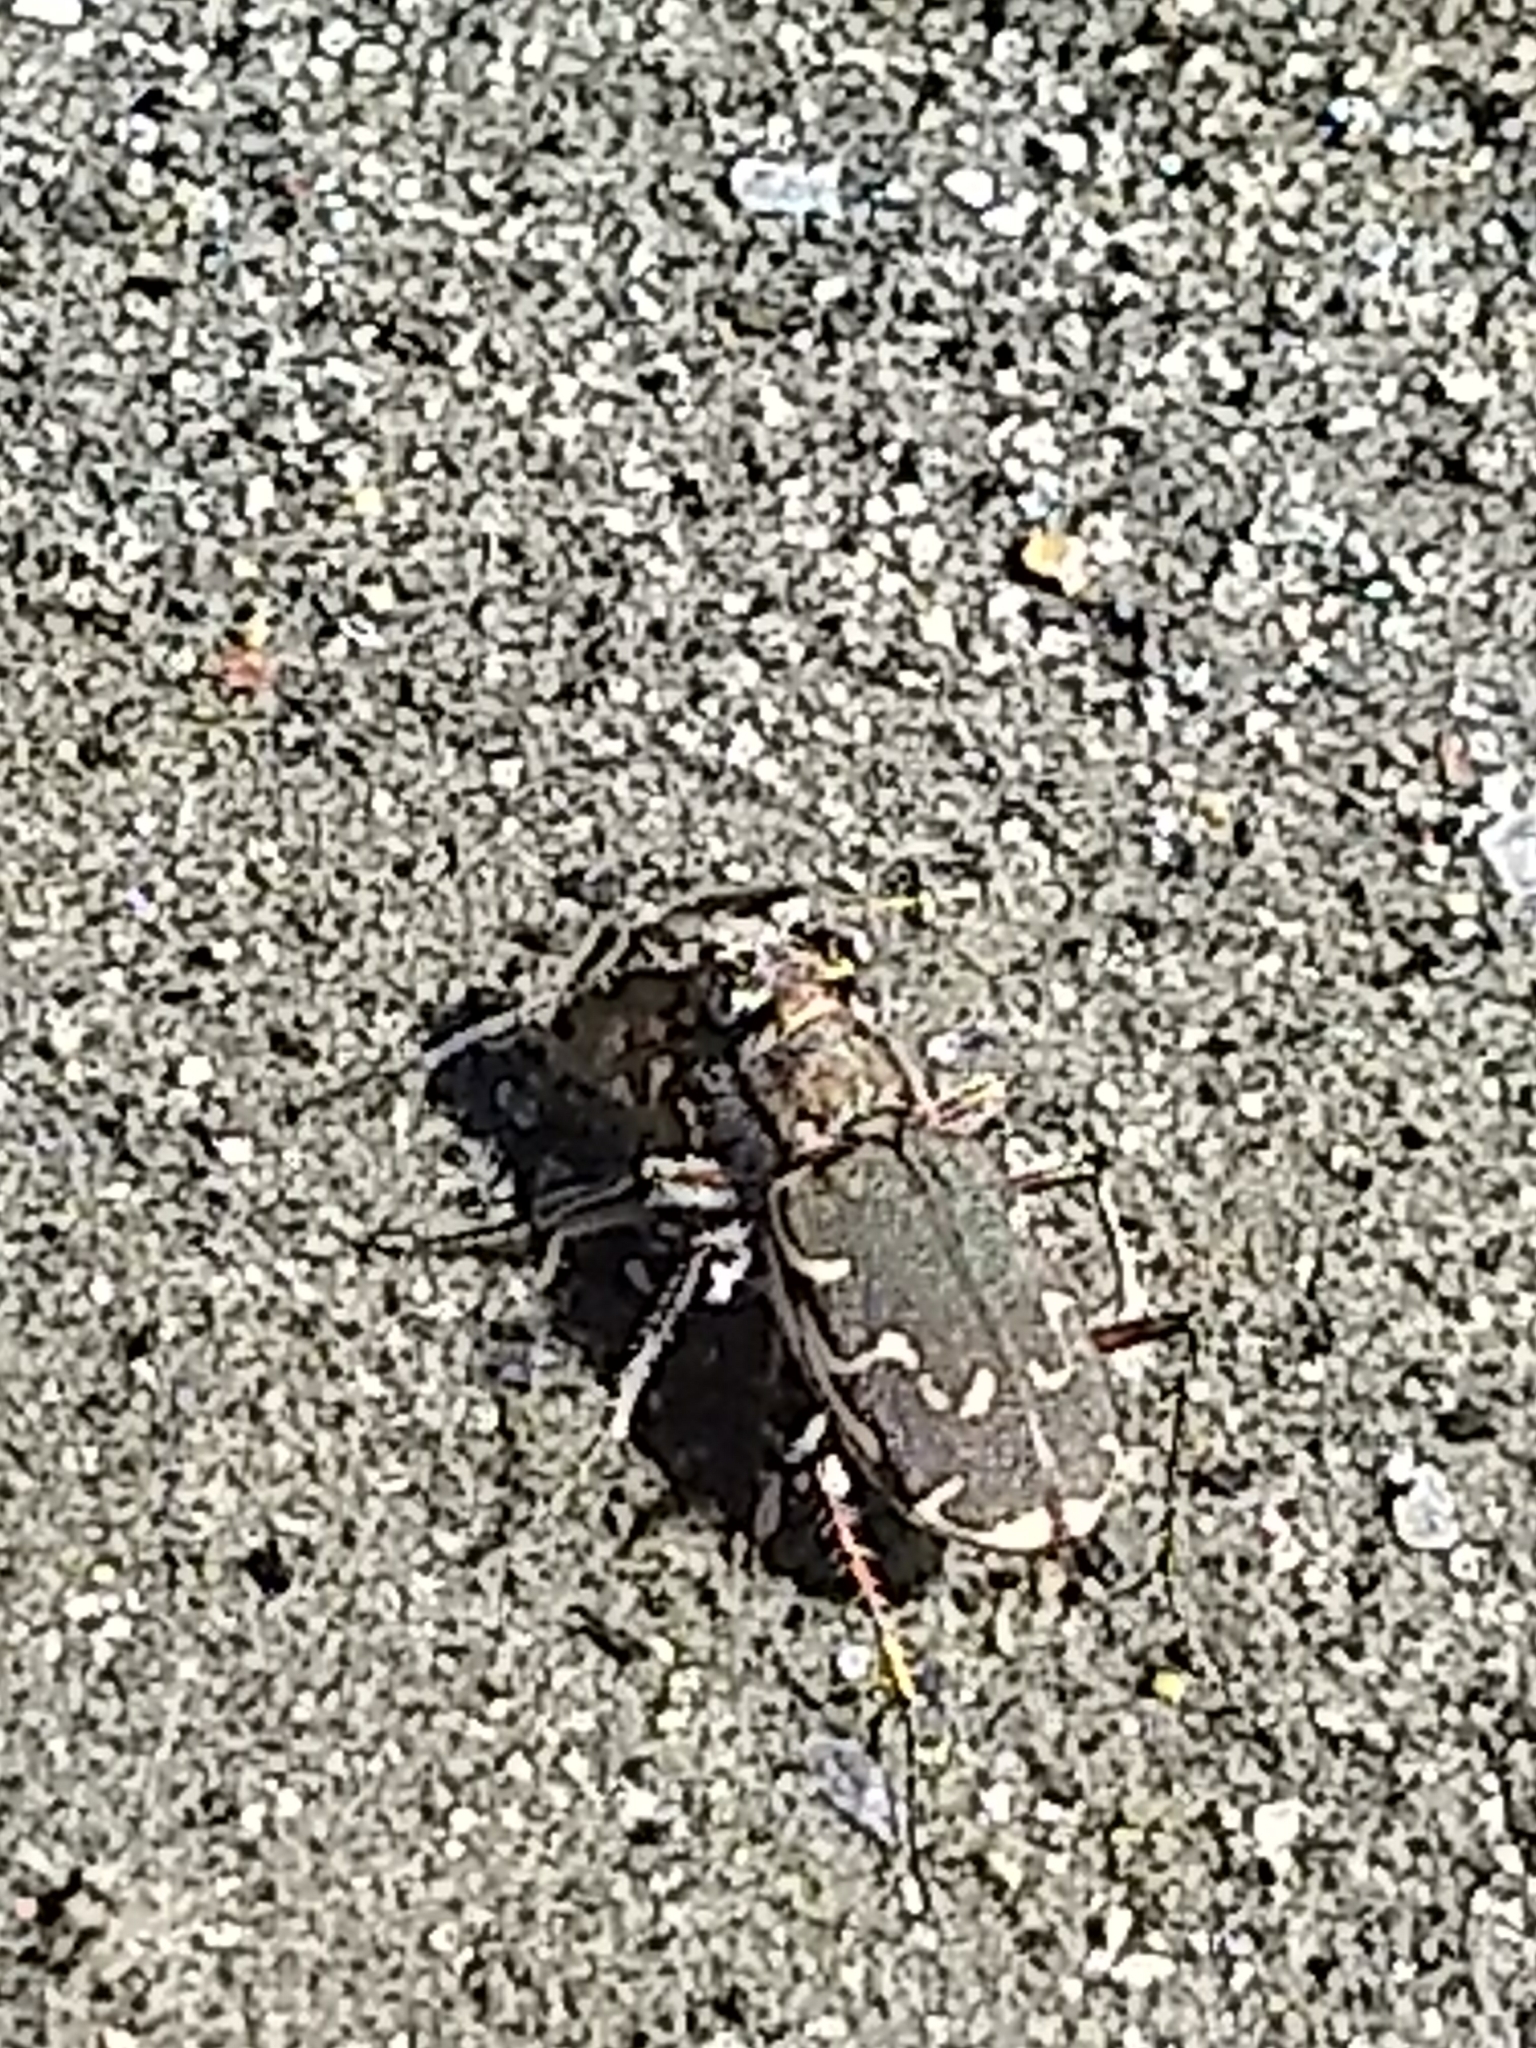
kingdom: Animalia
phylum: Arthropoda
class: Insecta
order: Coleoptera
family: Carabidae
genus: Cicindela
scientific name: Cicindela repanda
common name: Bronzed tiger beetle
